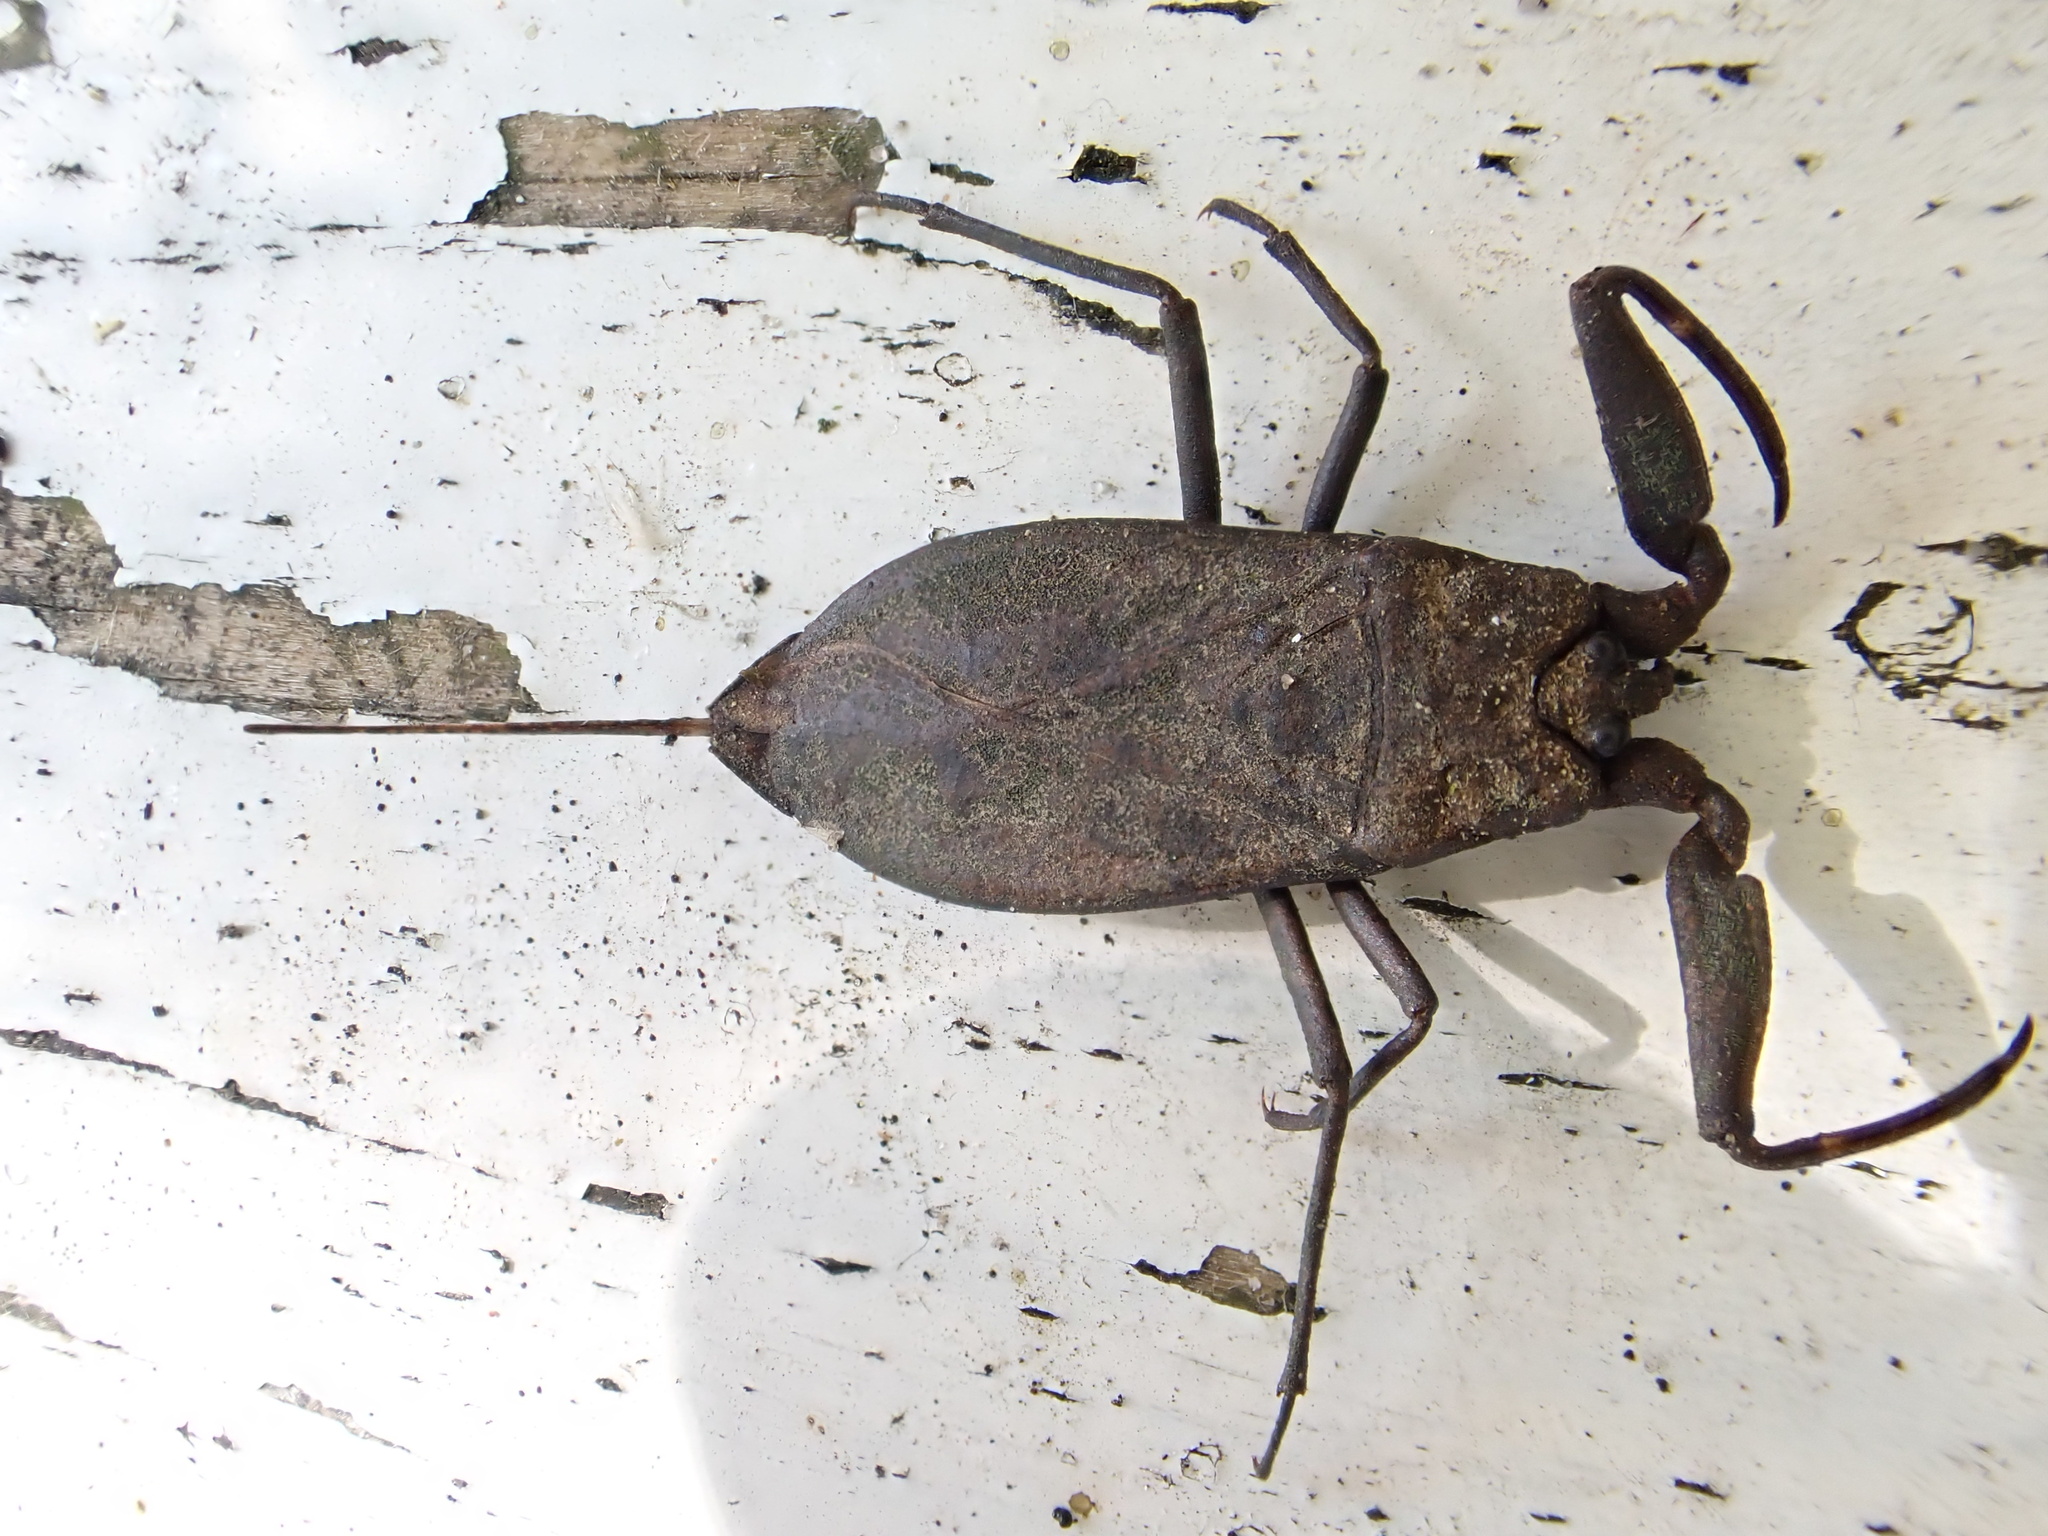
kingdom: Animalia
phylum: Arthropoda
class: Insecta
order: Hemiptera
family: Nepidae
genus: Nepa
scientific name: Nepa cinerea
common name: Water scorpion
